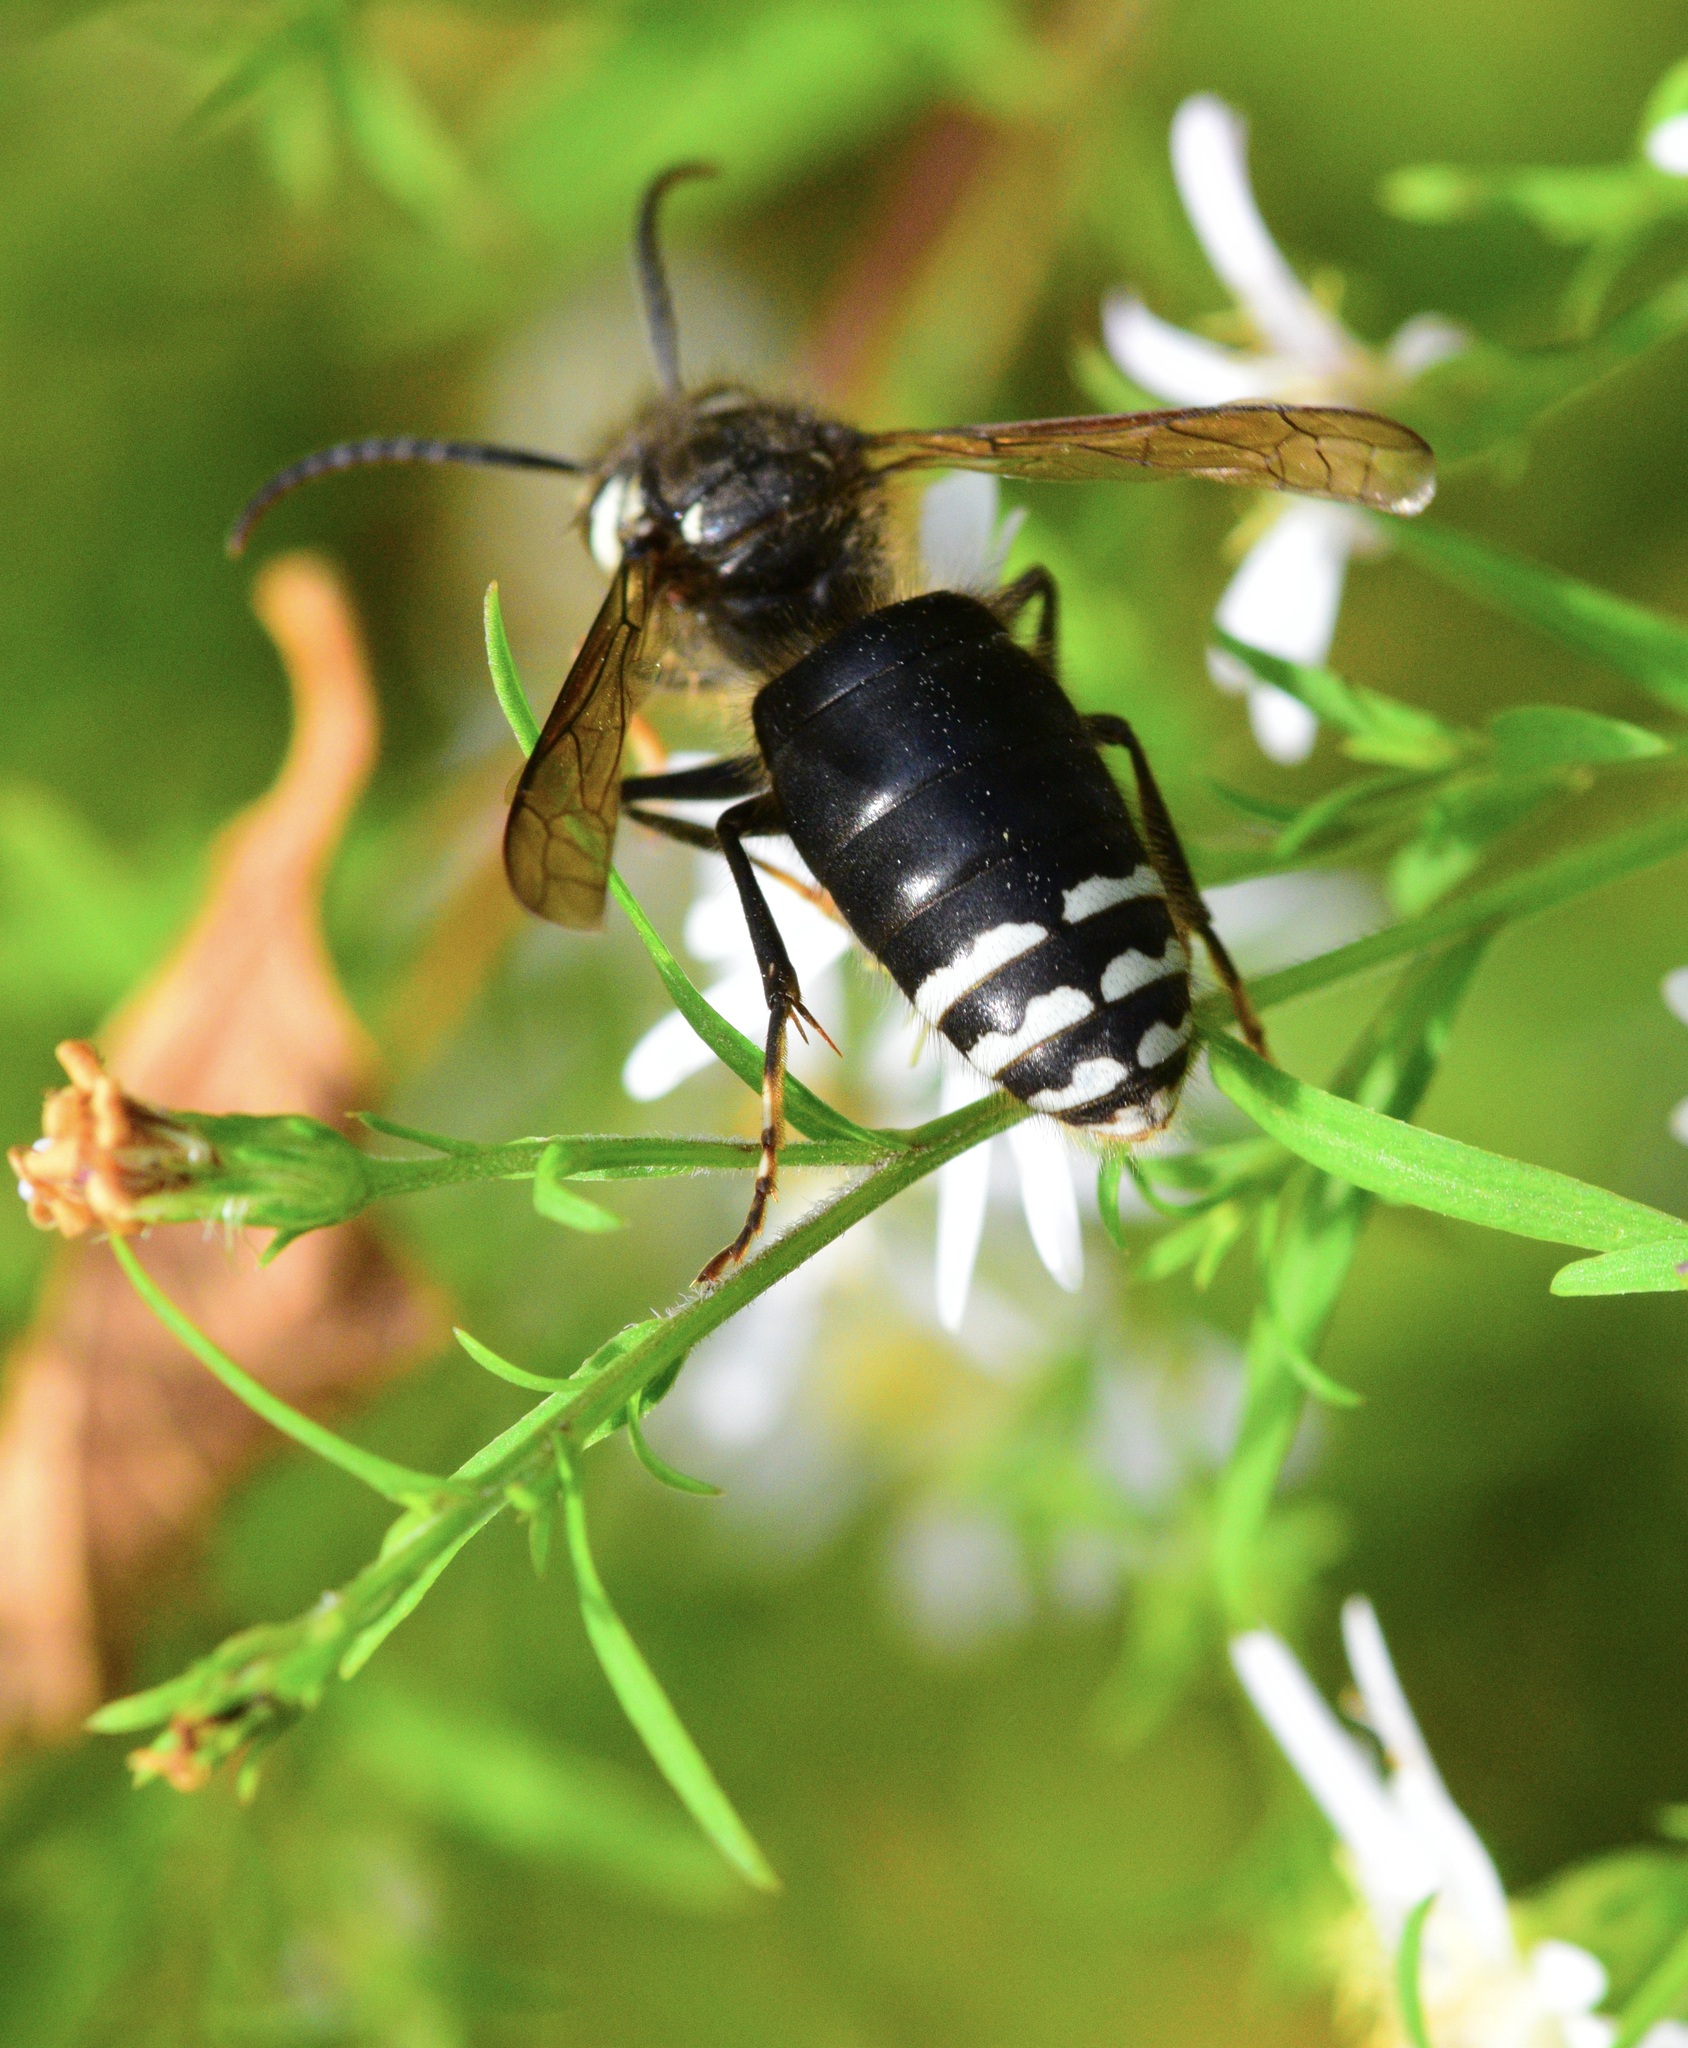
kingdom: Animalia
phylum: Arthropoda
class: Insecta
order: Hymenoptera
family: Vespidae
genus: Dolichovespula
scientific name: Dolichovespula maculata
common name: Bald-faced hornet
